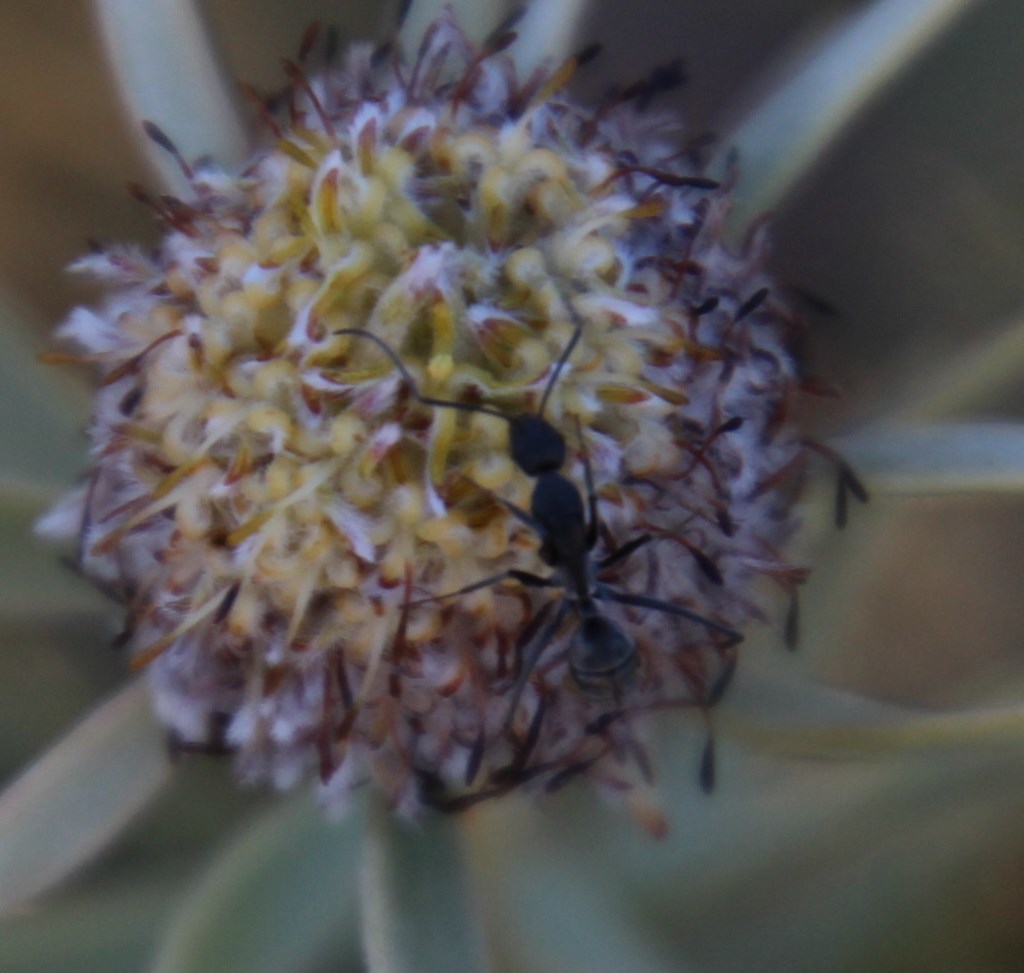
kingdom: Plantae
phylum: Tracheophyta
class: Magnoliopsida
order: Proteales
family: Proteaceae
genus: Leucadendron
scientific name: Leucadendron pubescens
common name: Grey conebush
